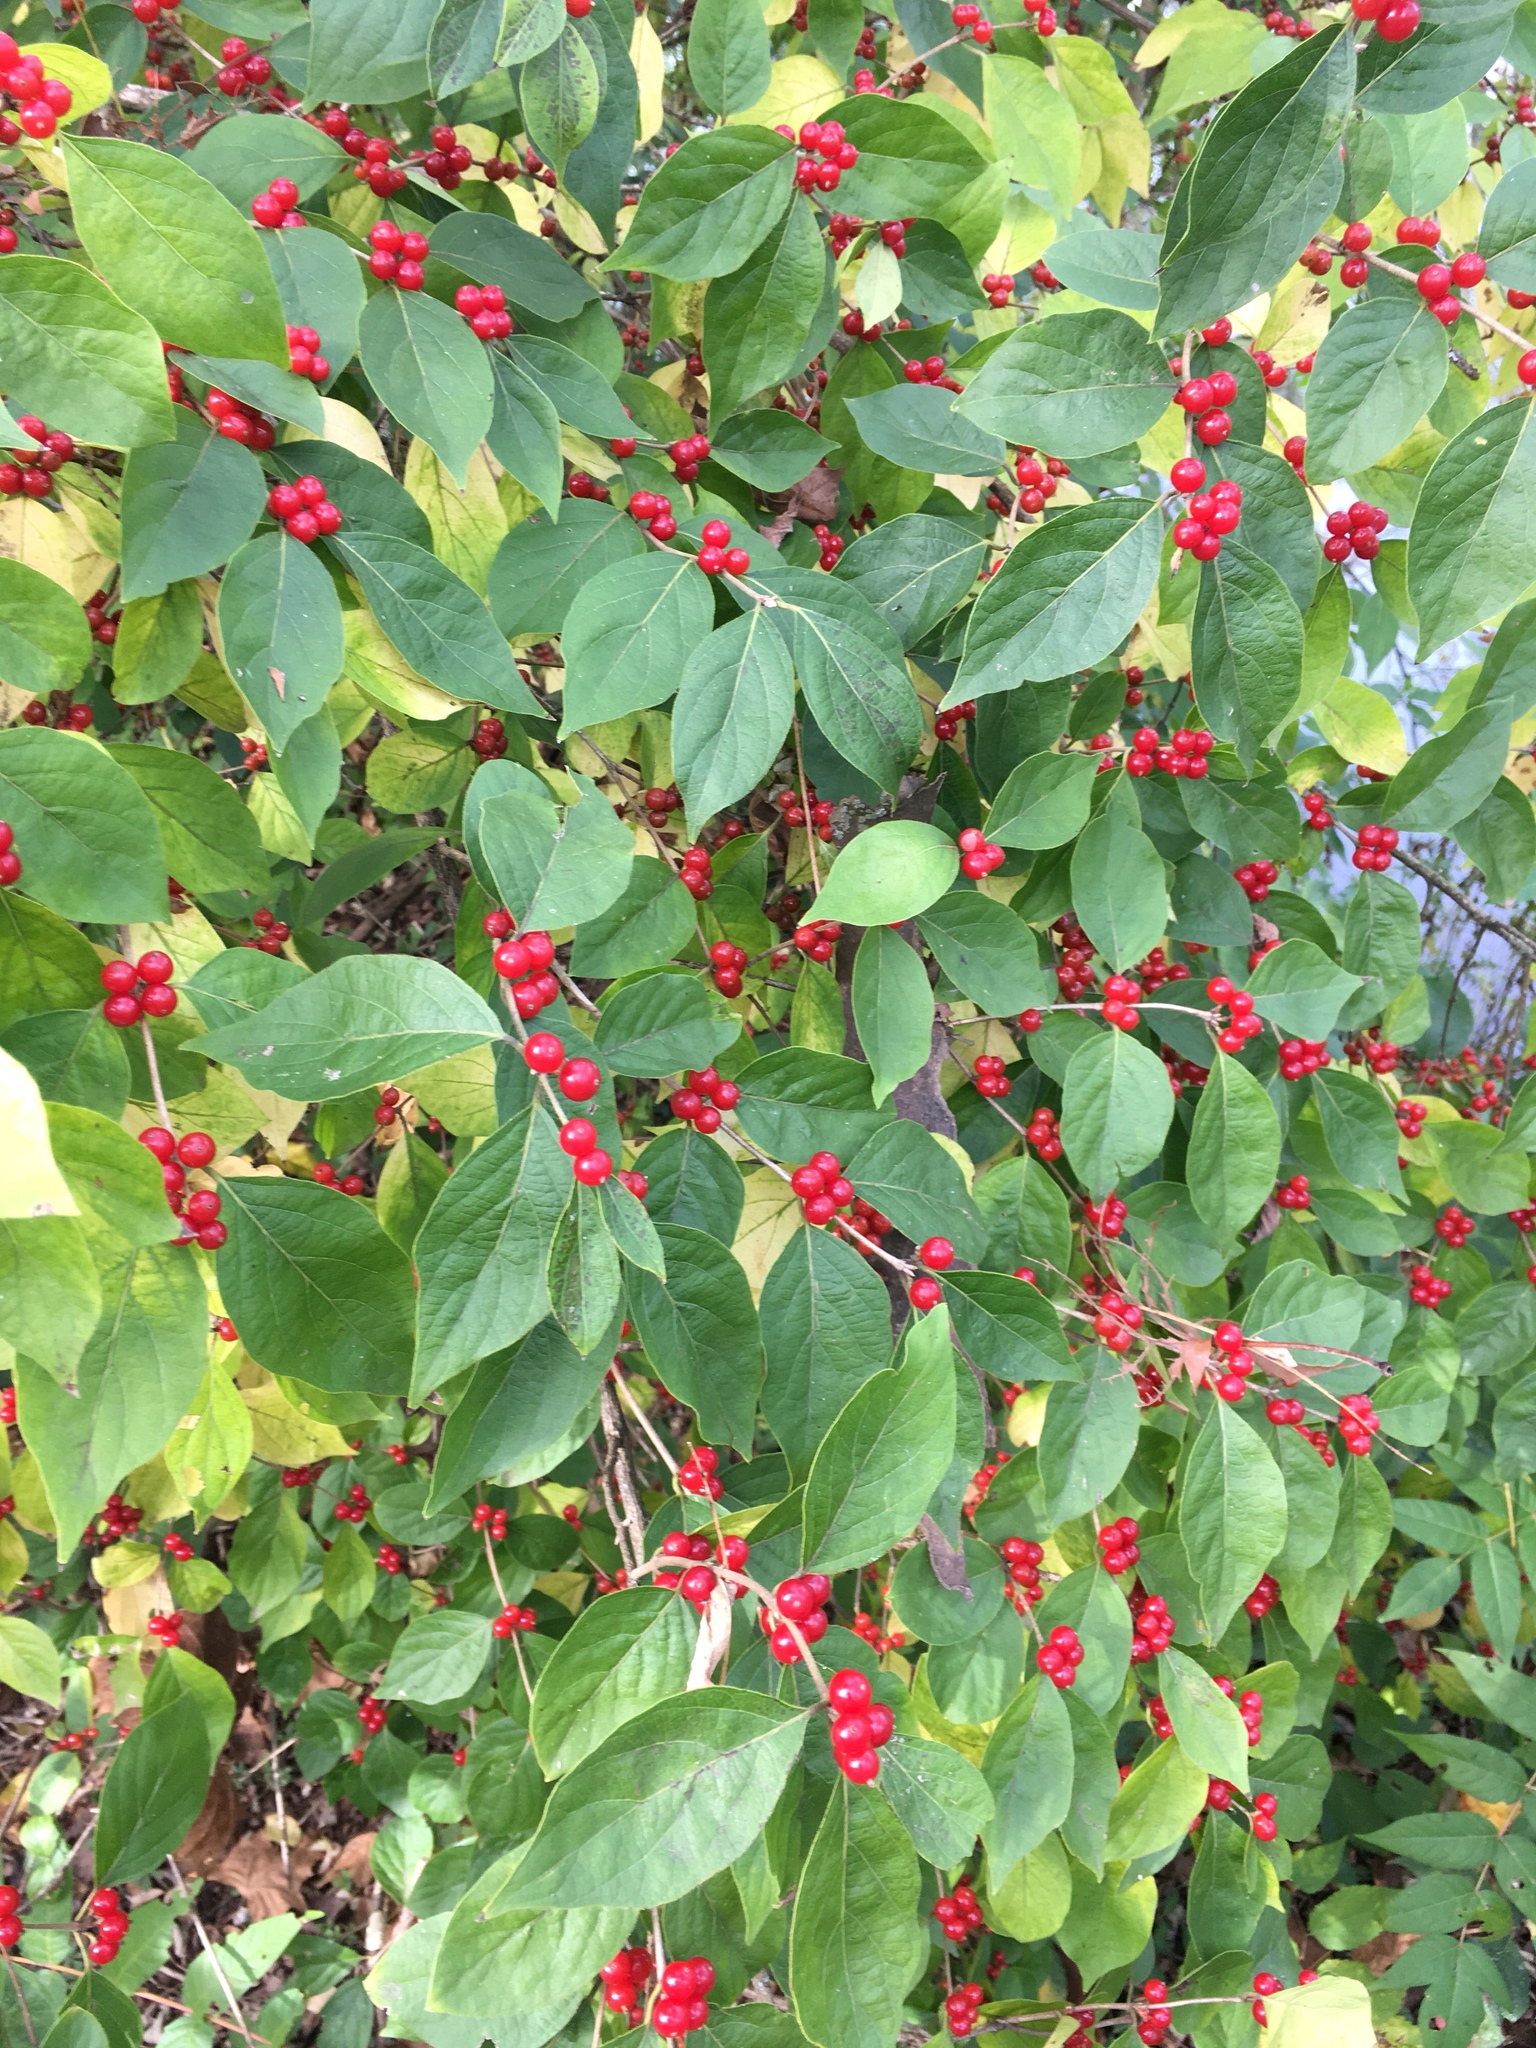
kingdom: Plantae
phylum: Tracheophyta
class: Magnoliopsida
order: Dipsacales
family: Caprifoliaceae
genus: Lonicera
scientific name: Lonicera maackii
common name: Amur honeysuckle
